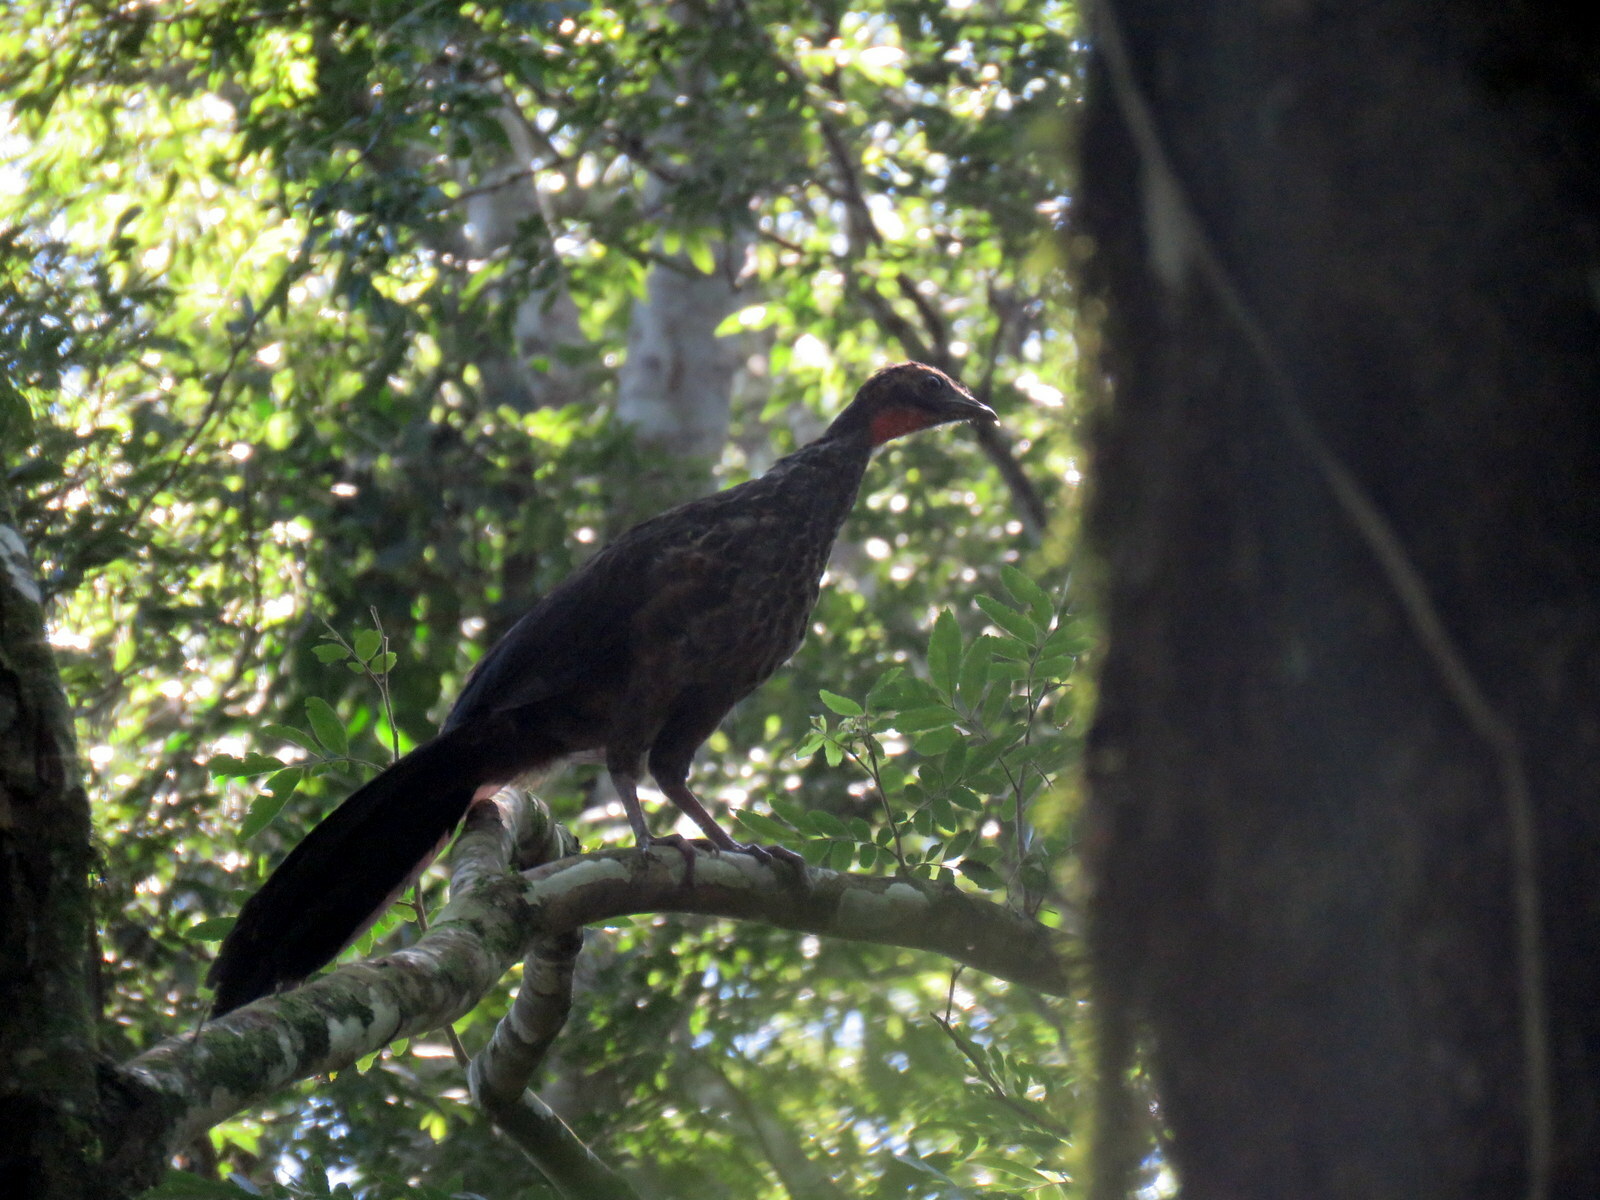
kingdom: Animalia
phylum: Chordata
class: Aves
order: Galliformes
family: Cracidae
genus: Penelope
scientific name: Penelope superciliaris
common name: Rusty-margined guan
